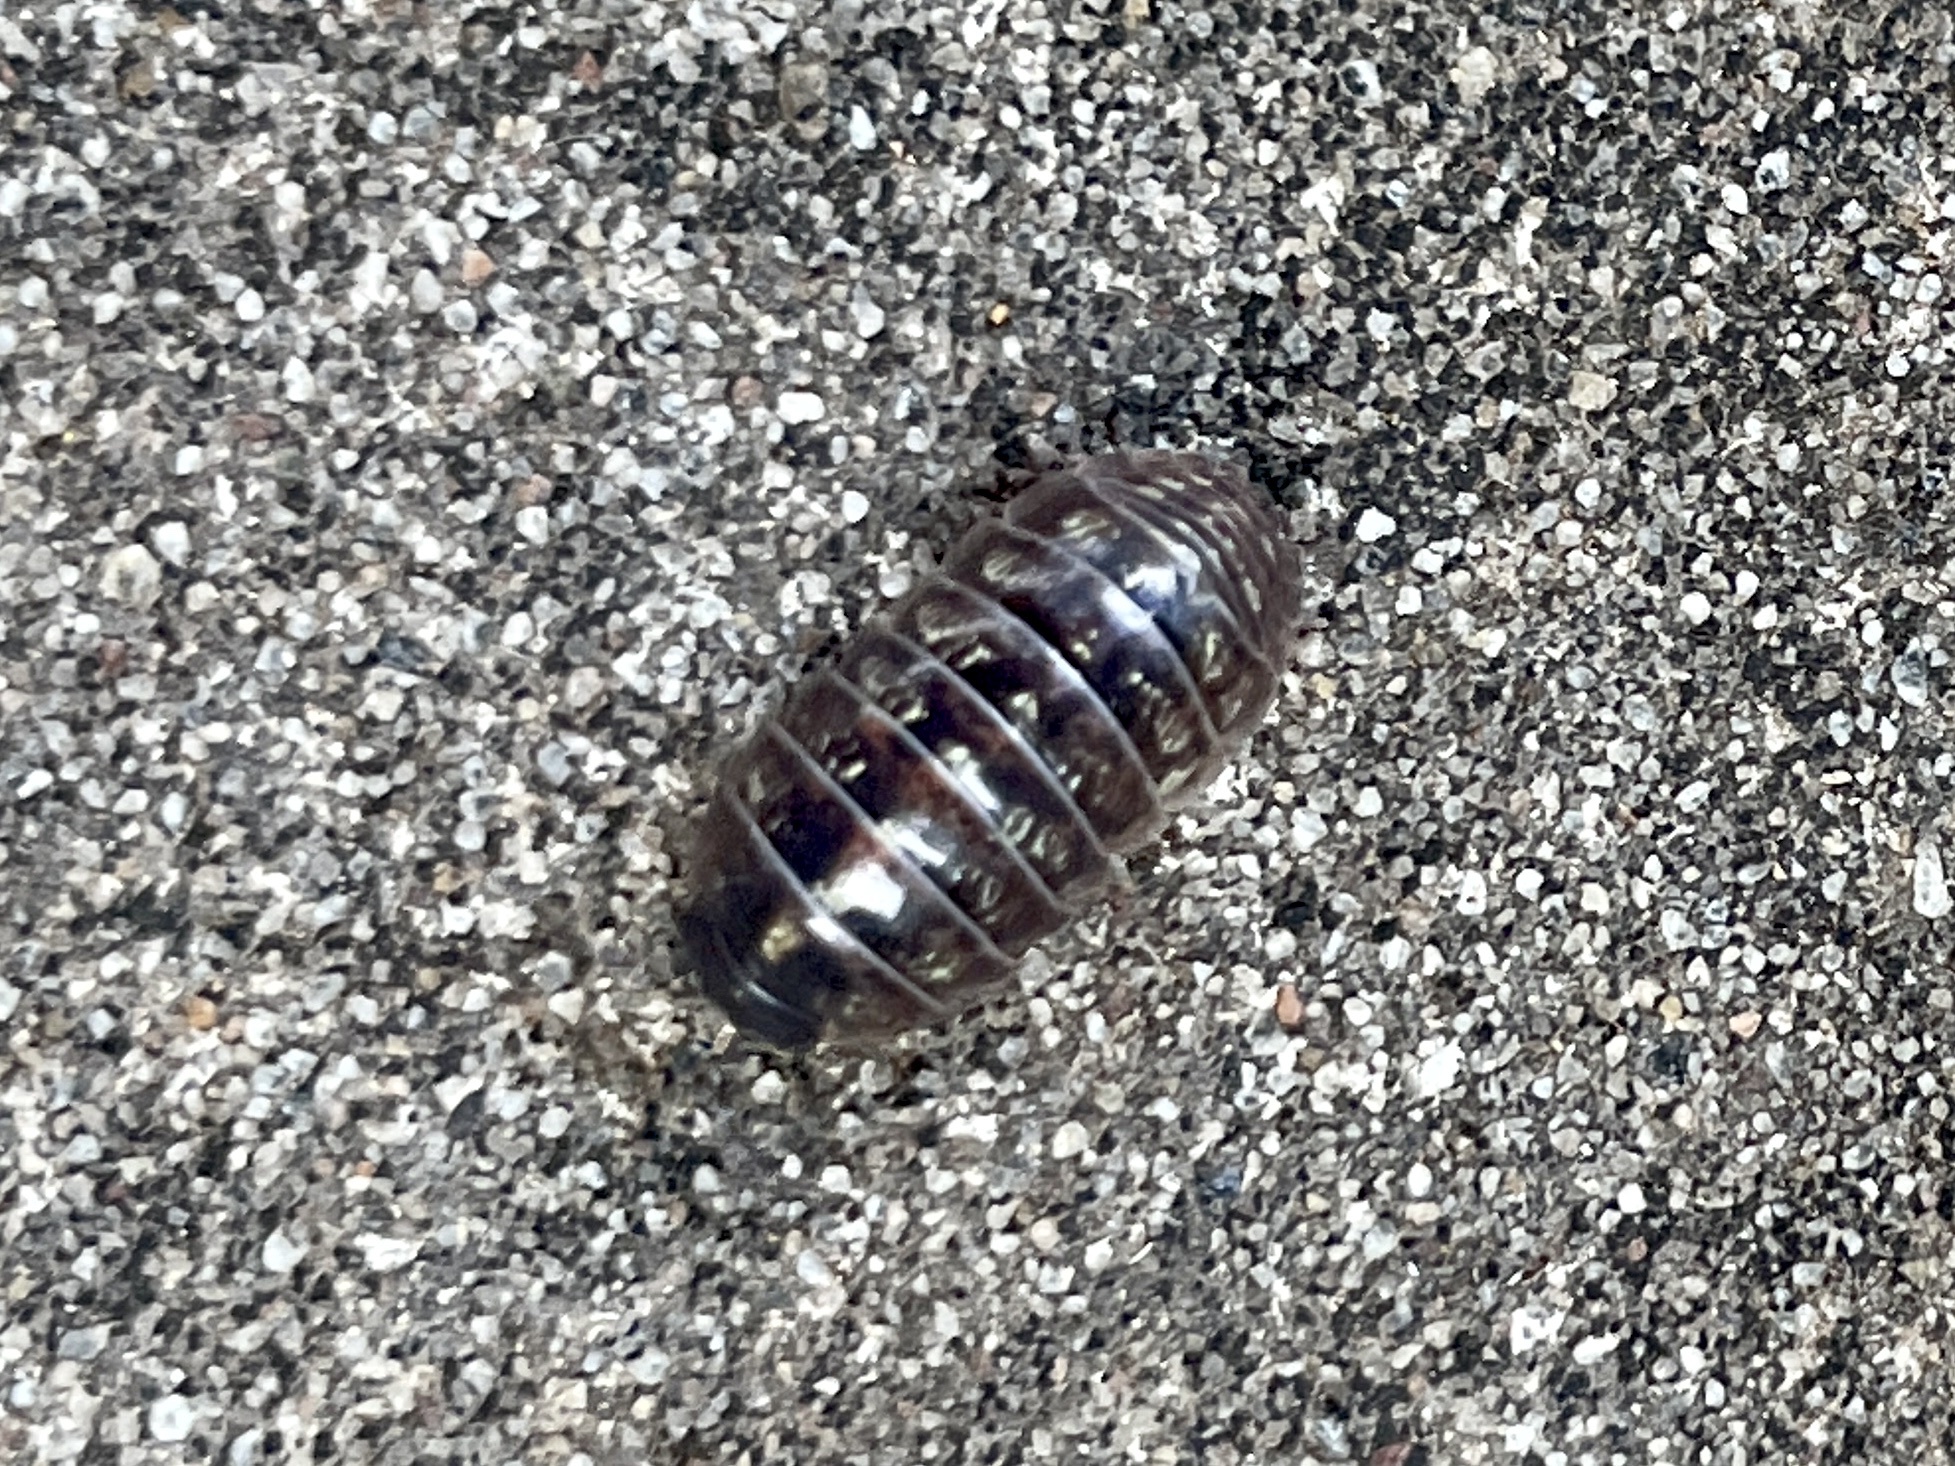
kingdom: Animalia
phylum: Arthropoda
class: Malacostraca
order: Isopoda
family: Armadillidiidae
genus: Armadillidium
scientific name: Armadillidium vulgare
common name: Common pill woodlouse
